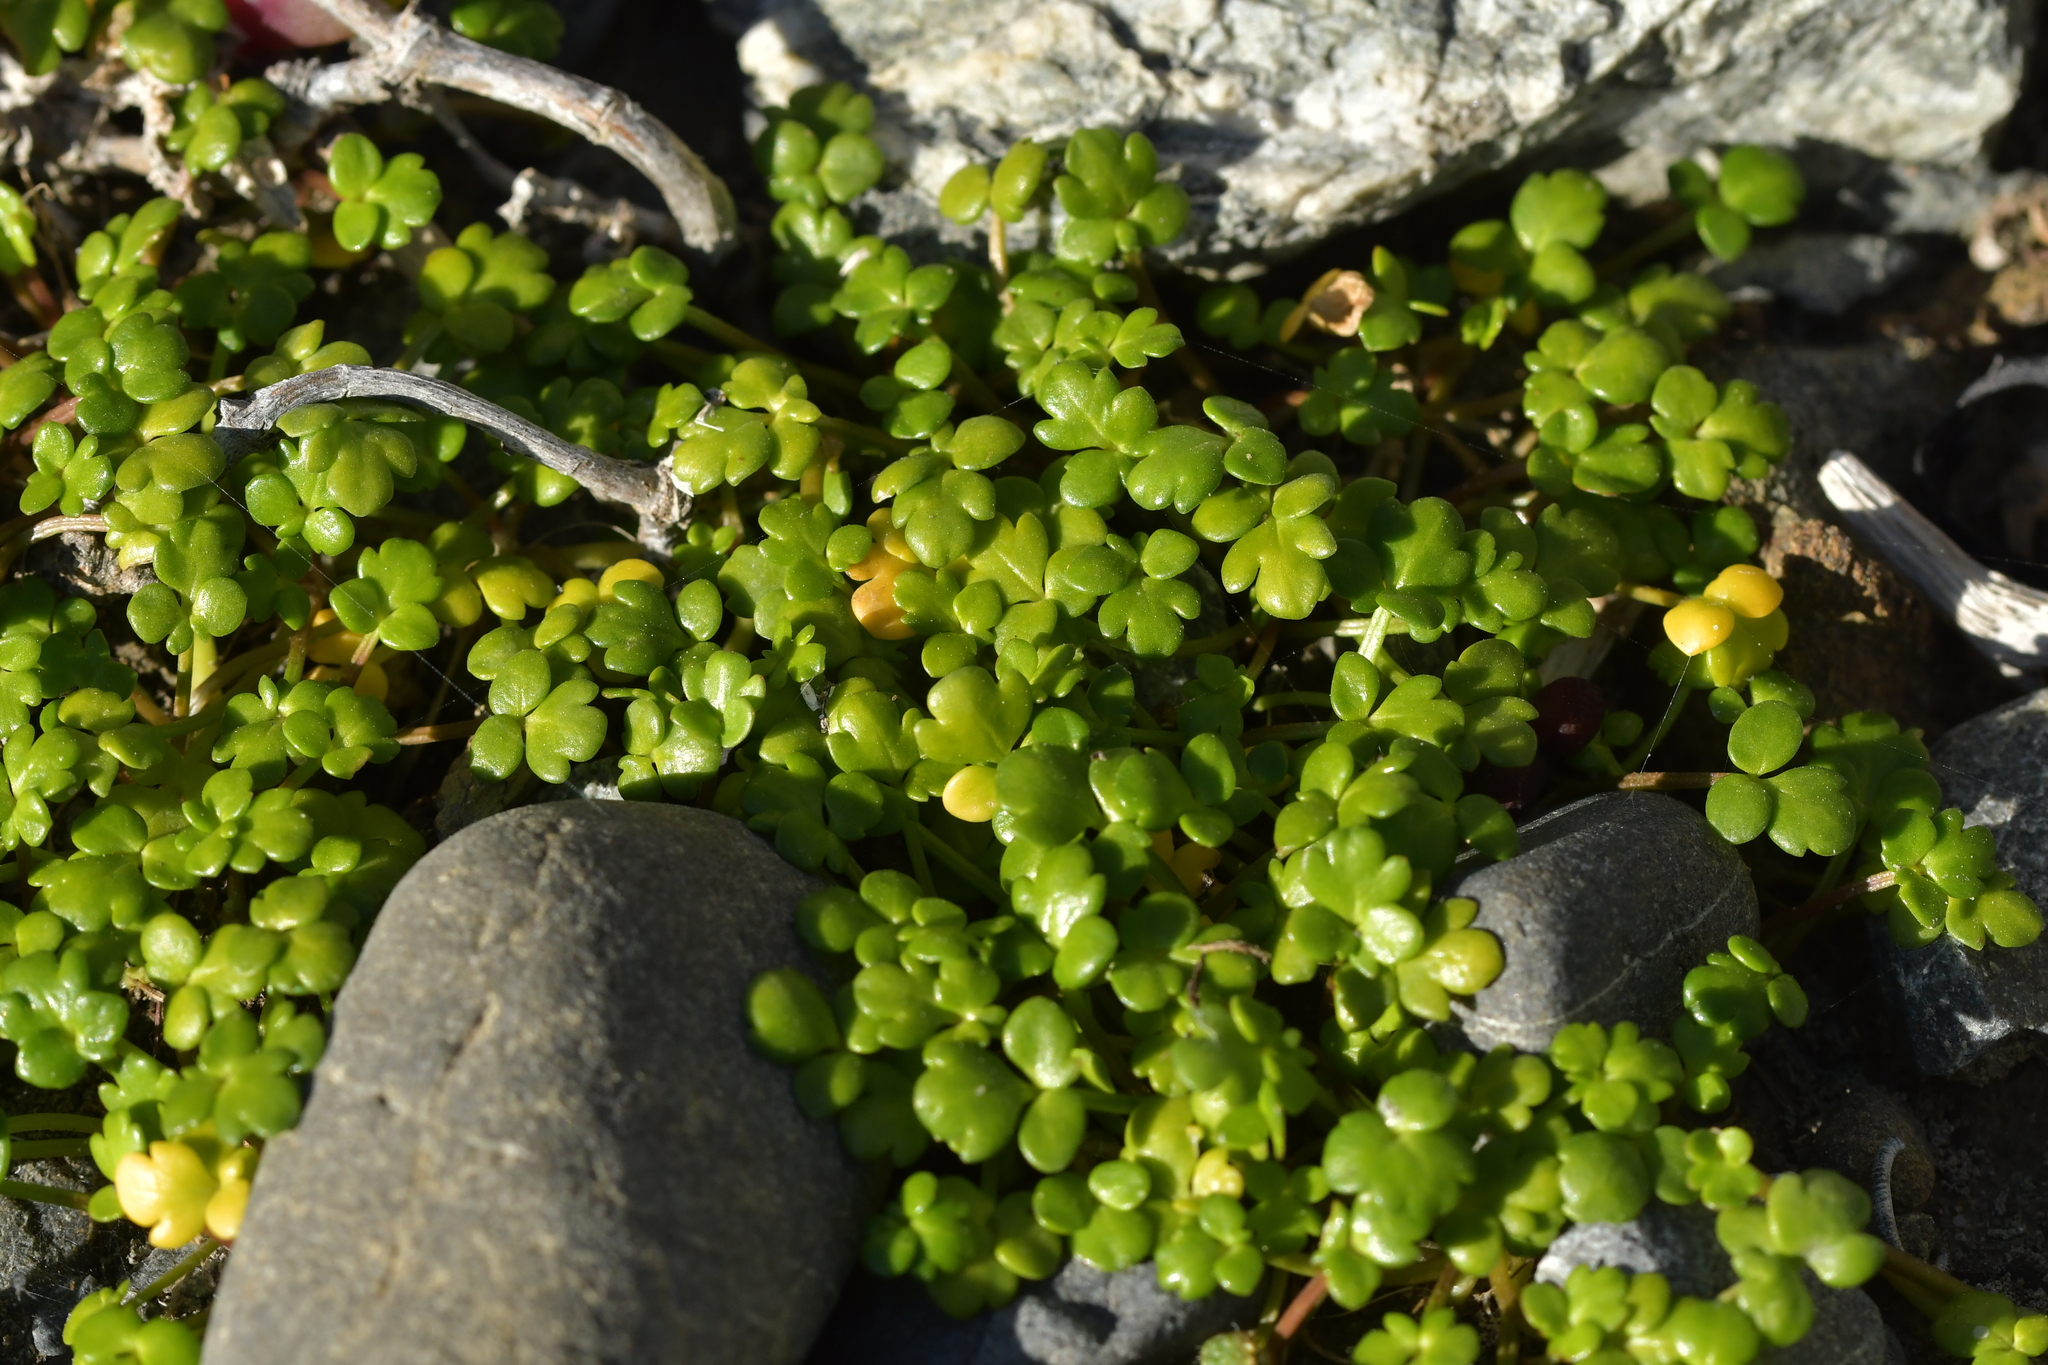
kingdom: Plantae
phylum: Tracheophyta
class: Magnoliopsida
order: Ranunculales
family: Ranunculaceae
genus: Ranunculus
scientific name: Ranunculus acaulis
